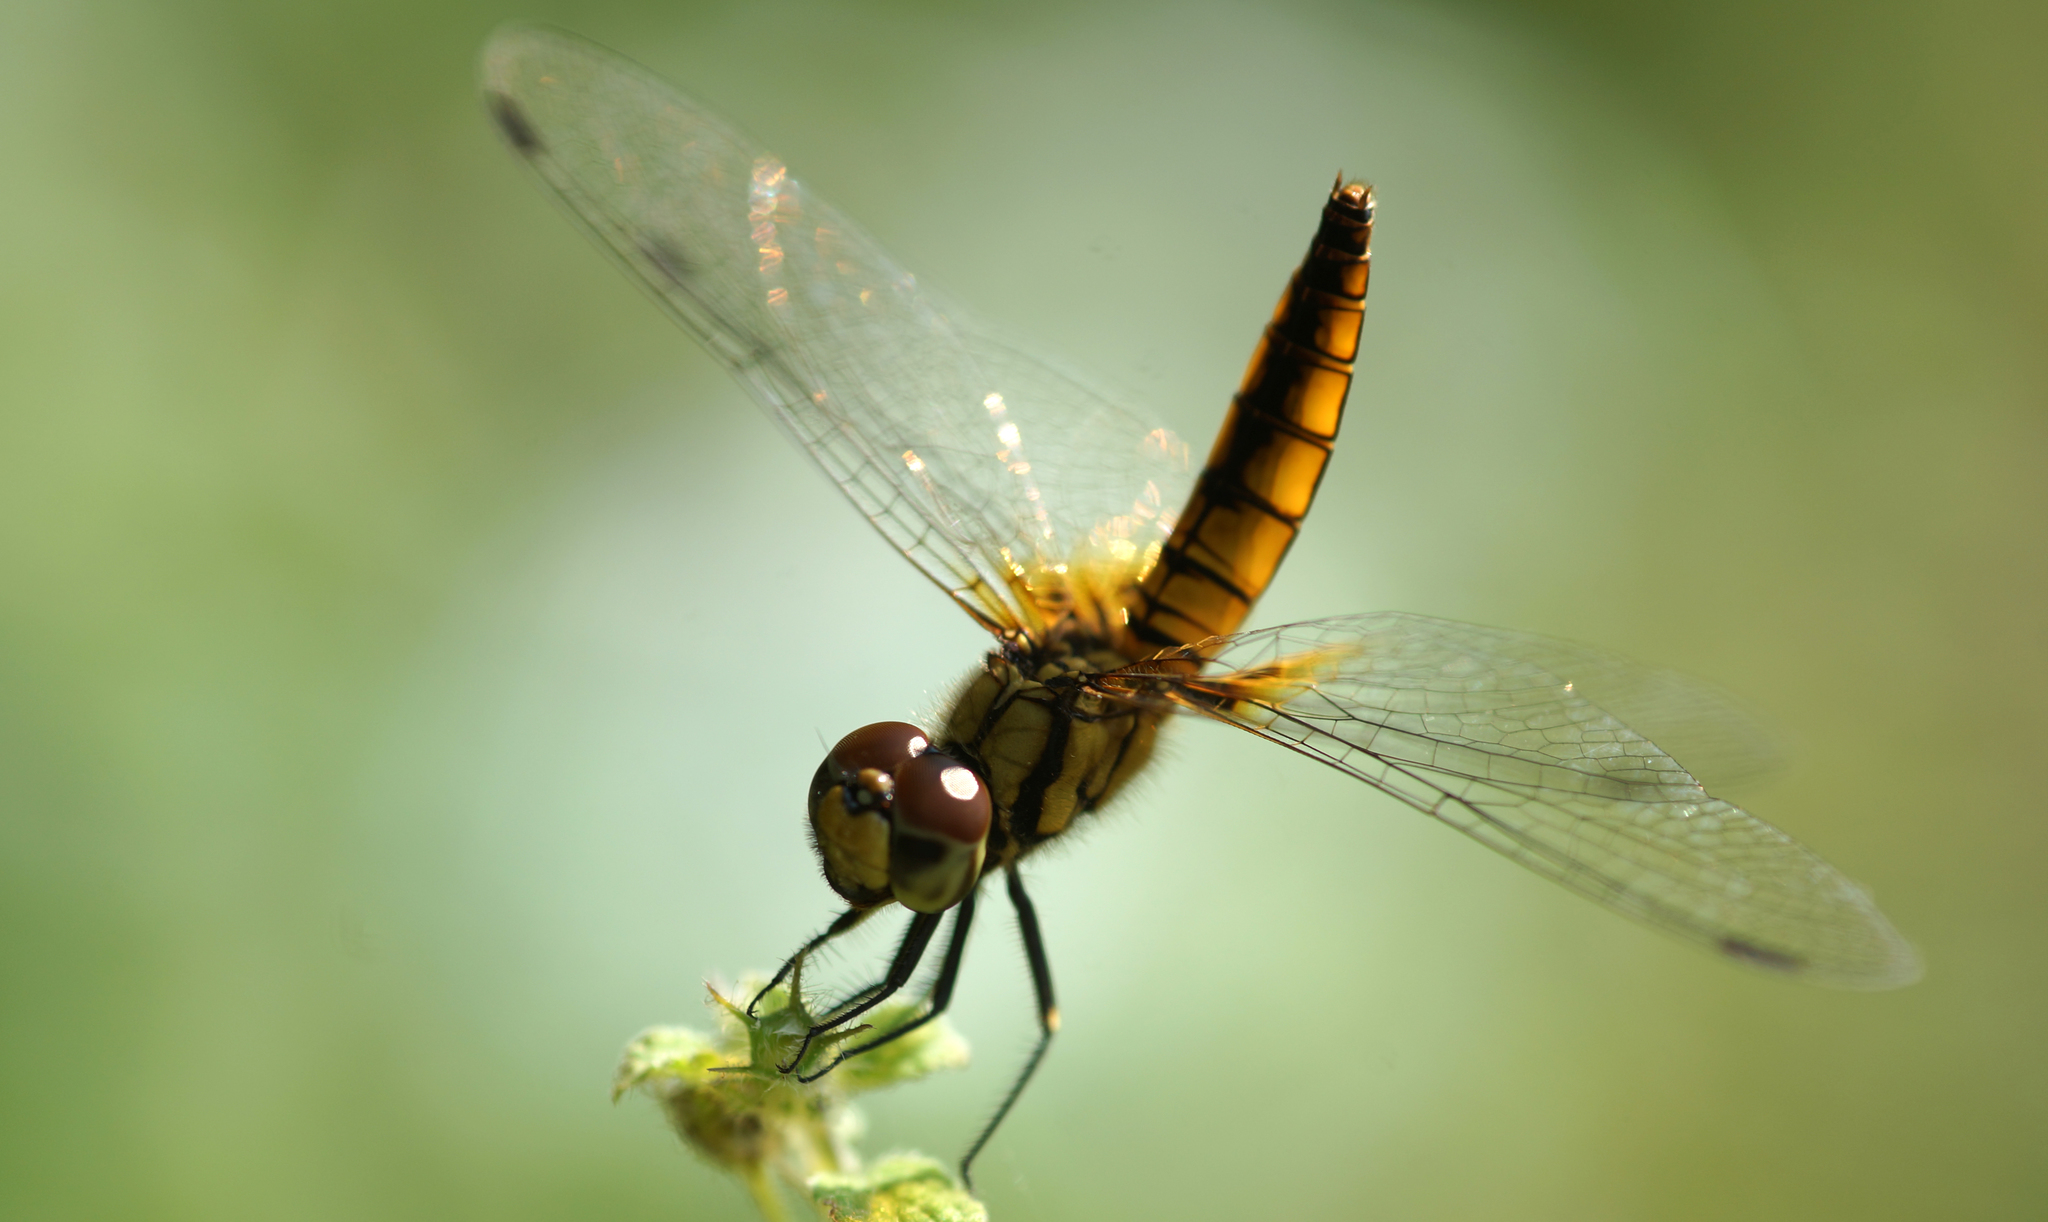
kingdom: Animalia
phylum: Arthropoda
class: Insecta
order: Odonata
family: Libellulidae
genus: Aethriamanta
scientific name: Aethriamanta brevipennis
